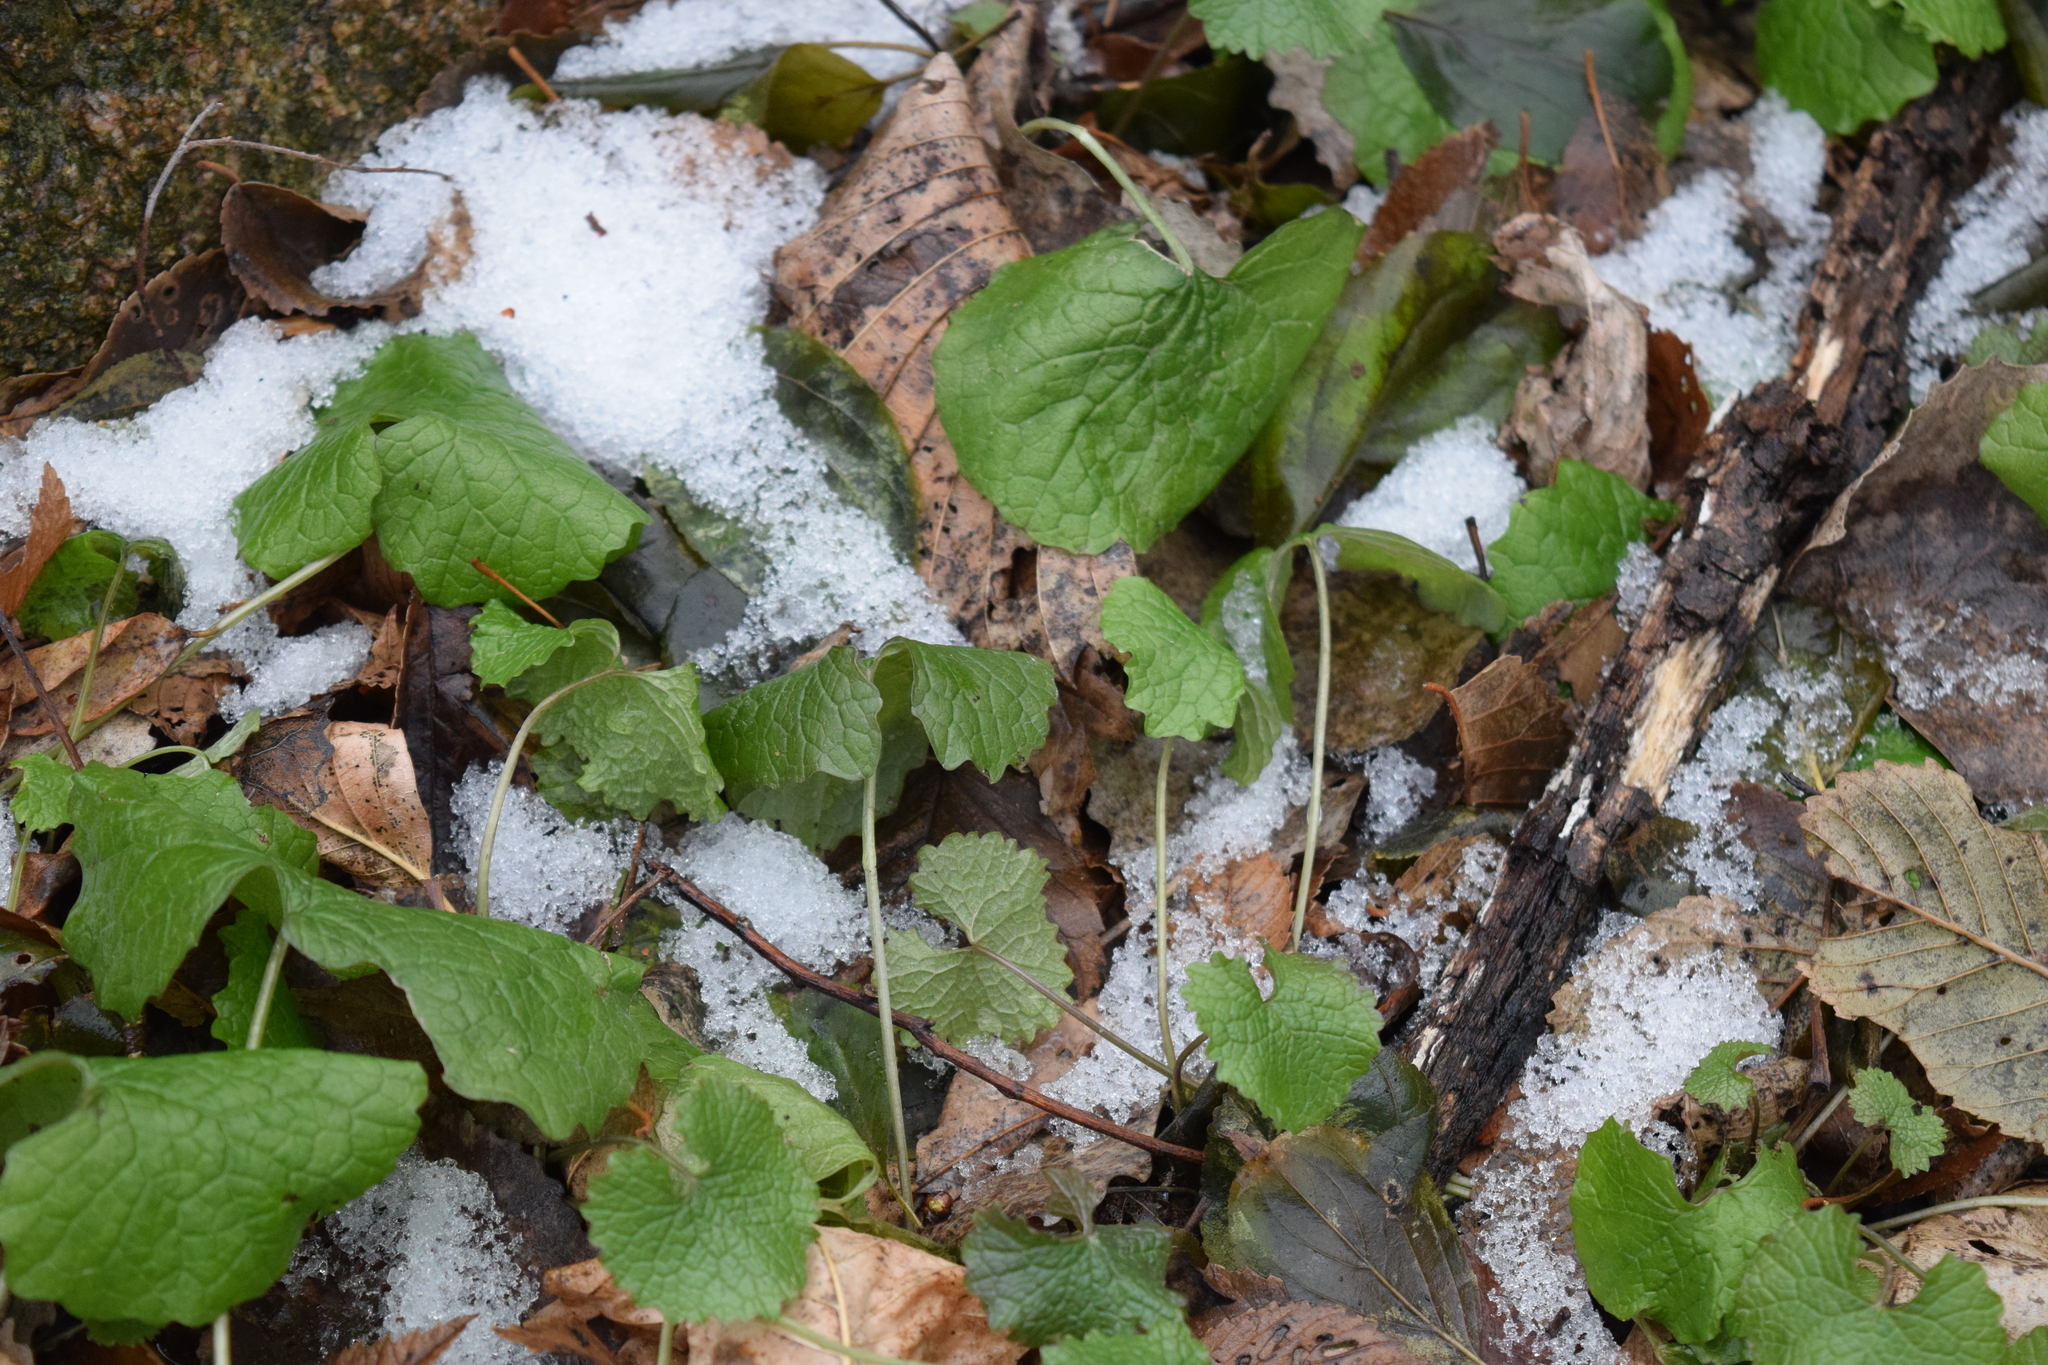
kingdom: Plantae
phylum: Tracheophyta
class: Magnoliopsida
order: Brassicales
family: Brassicaceae
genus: Alliaria
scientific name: Alliaria petiolata
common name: Garlic mustard
